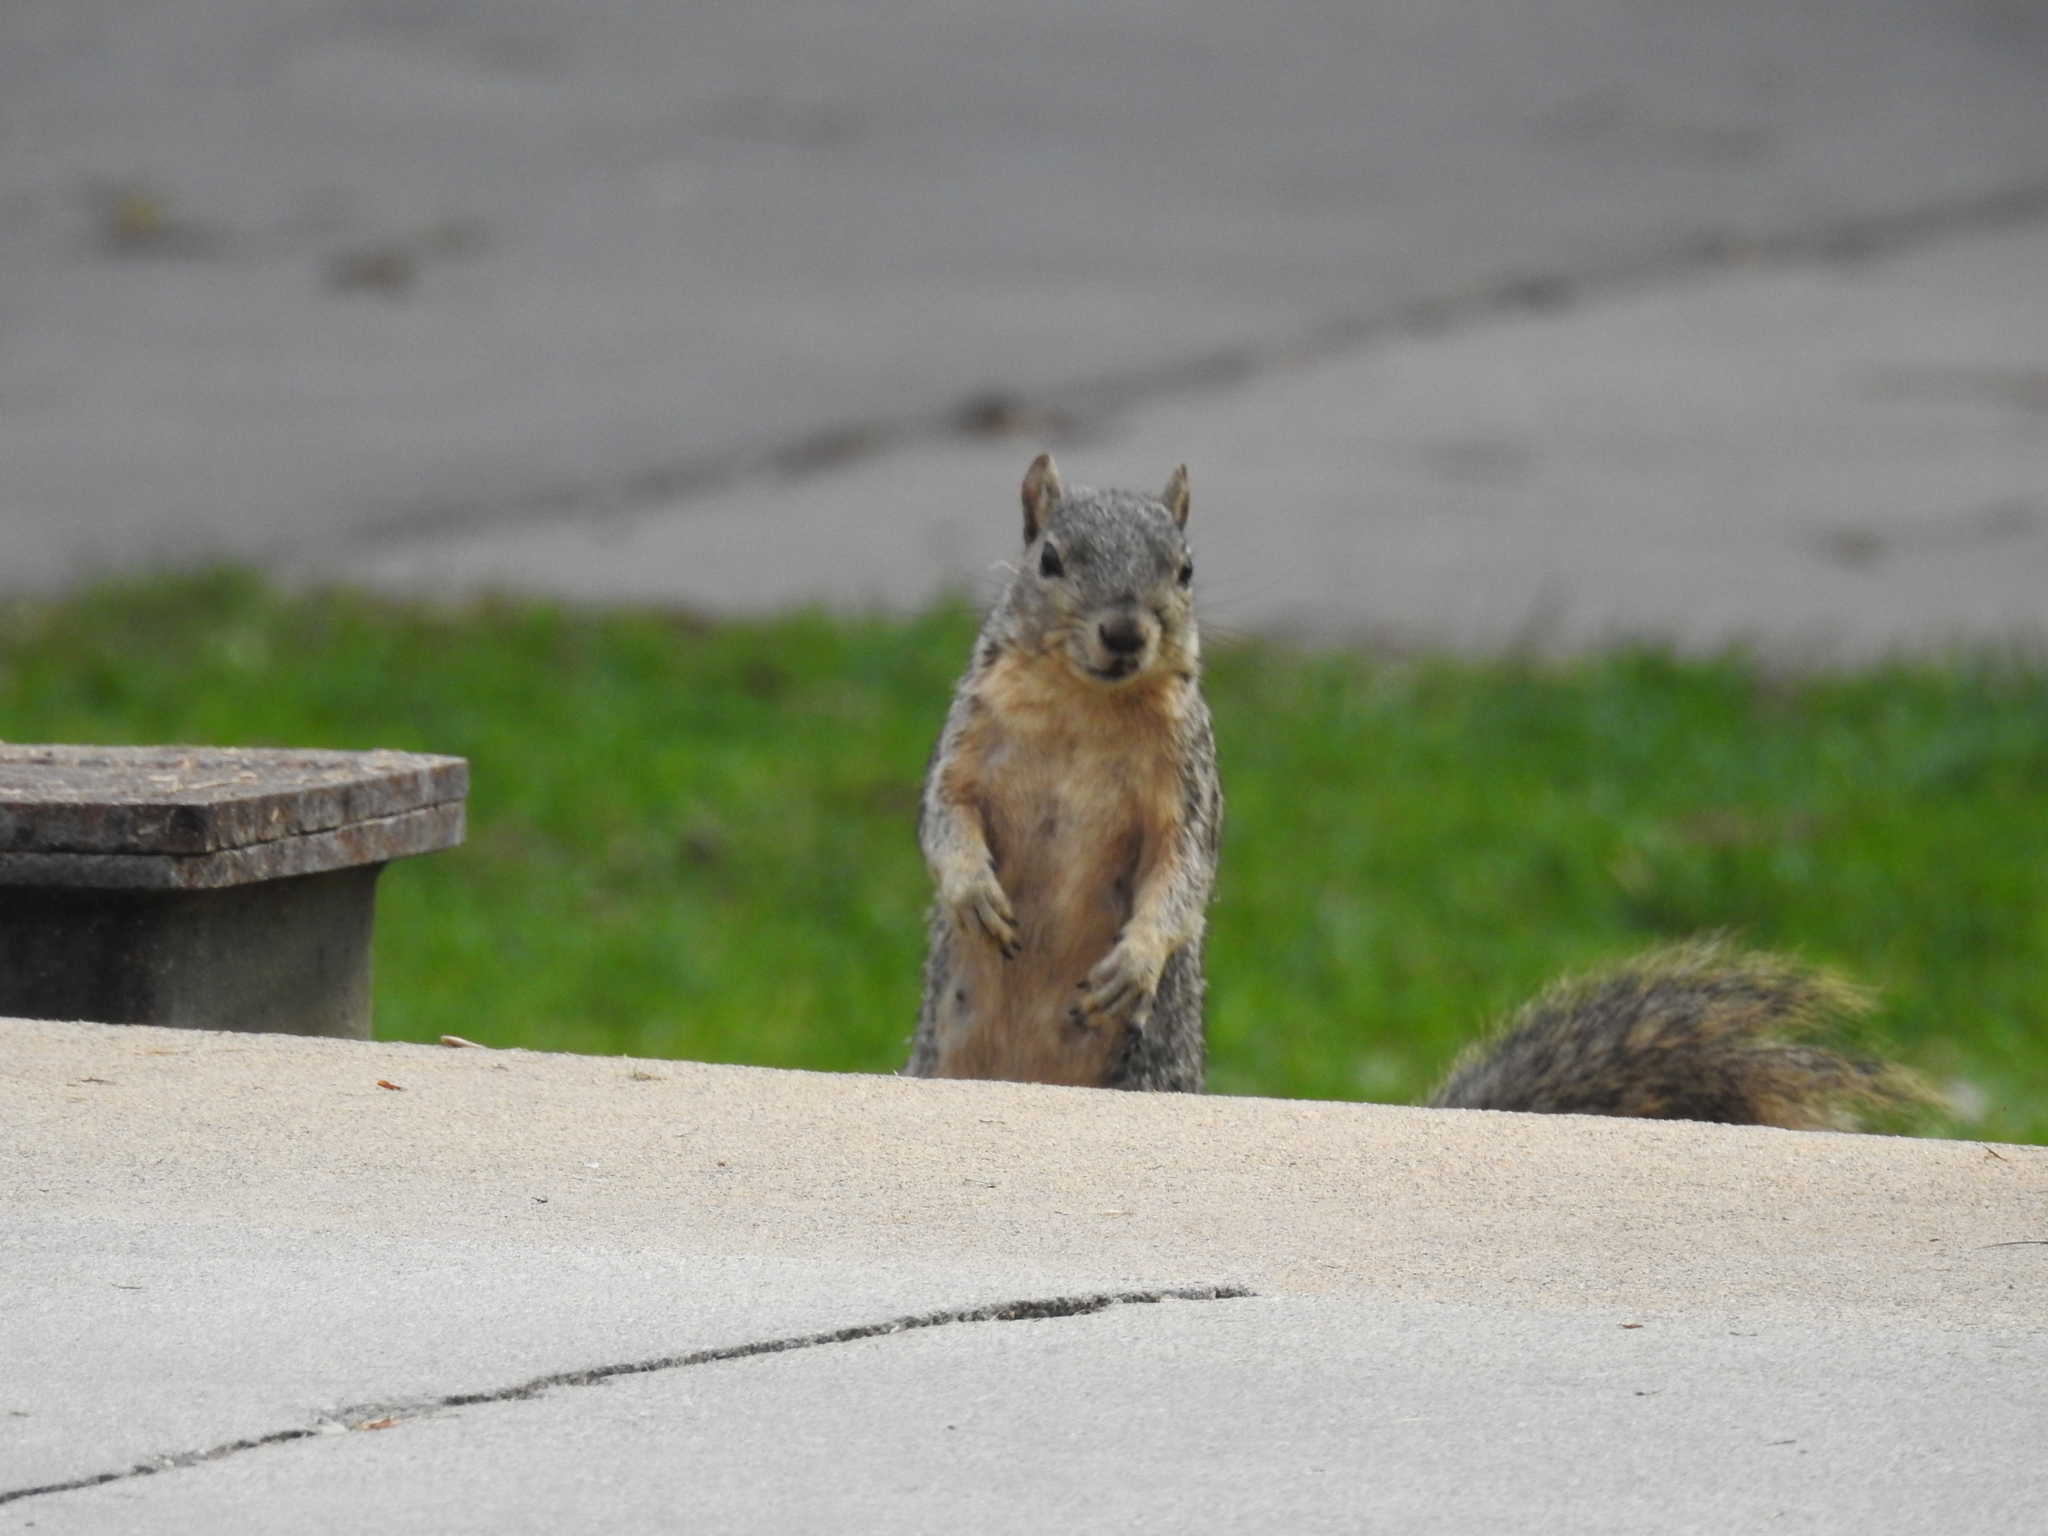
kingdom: Animalia
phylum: Chordata
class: Mammalia
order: Rodentia
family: Sciuridae
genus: Sciurus
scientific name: Sciurus niger
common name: Fox squirrel
